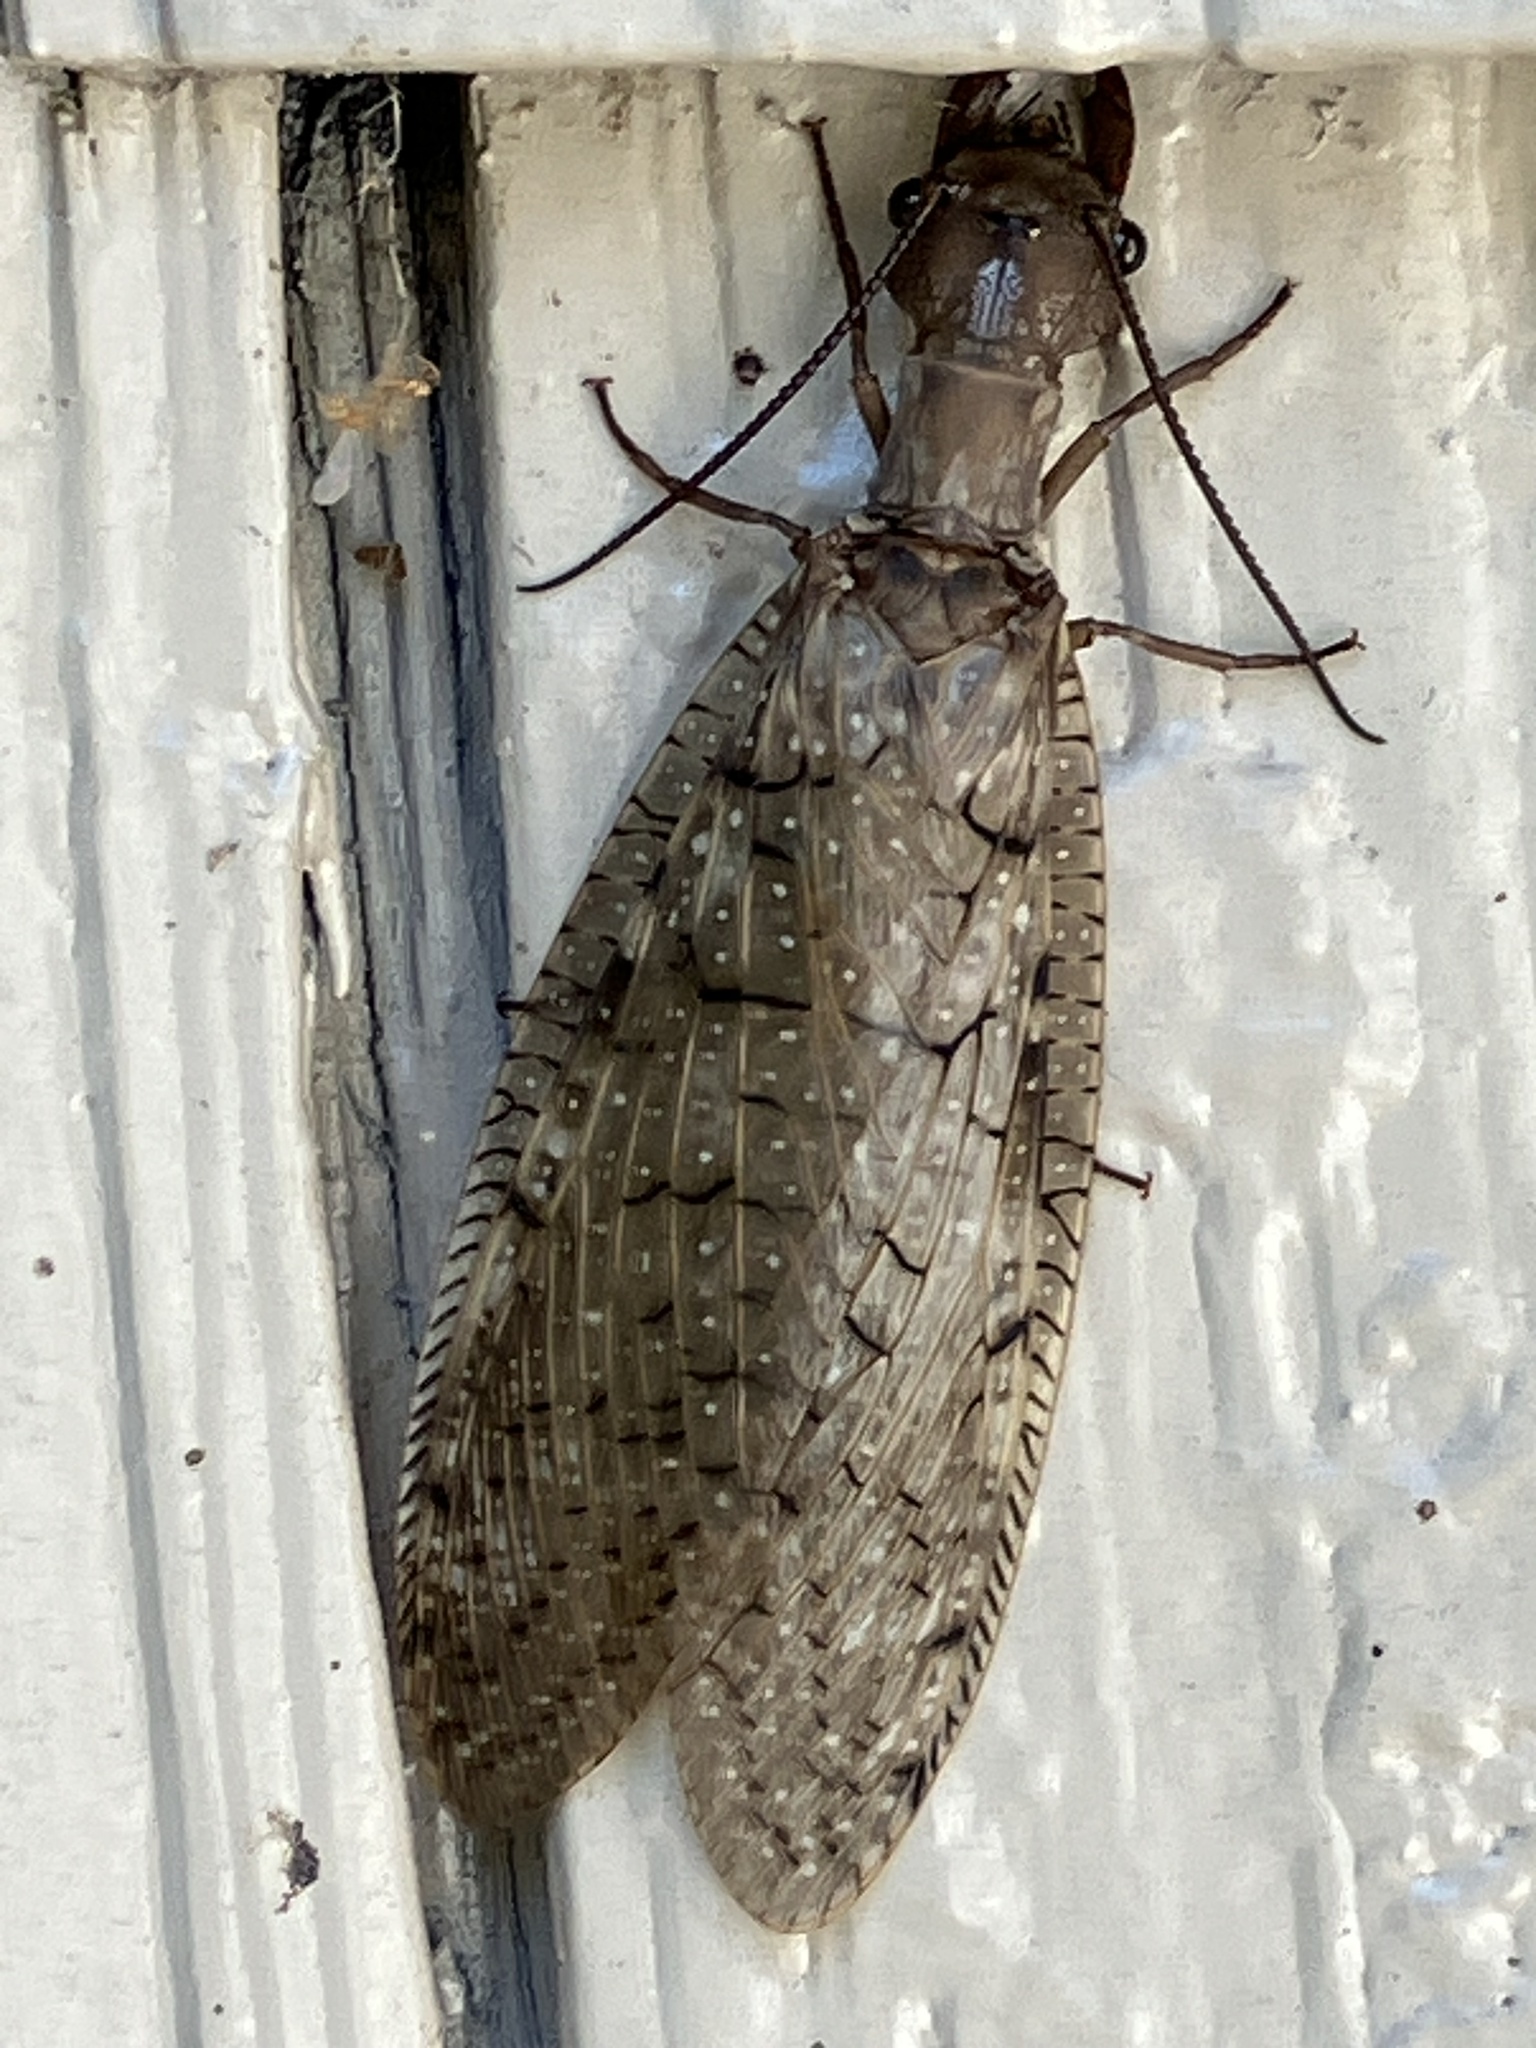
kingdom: Animalia
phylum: Arthropoda
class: Insecta
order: Megaloptera
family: Corydalidae
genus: Corydalus
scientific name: Corydalus cornutus
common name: Dobsonfly
